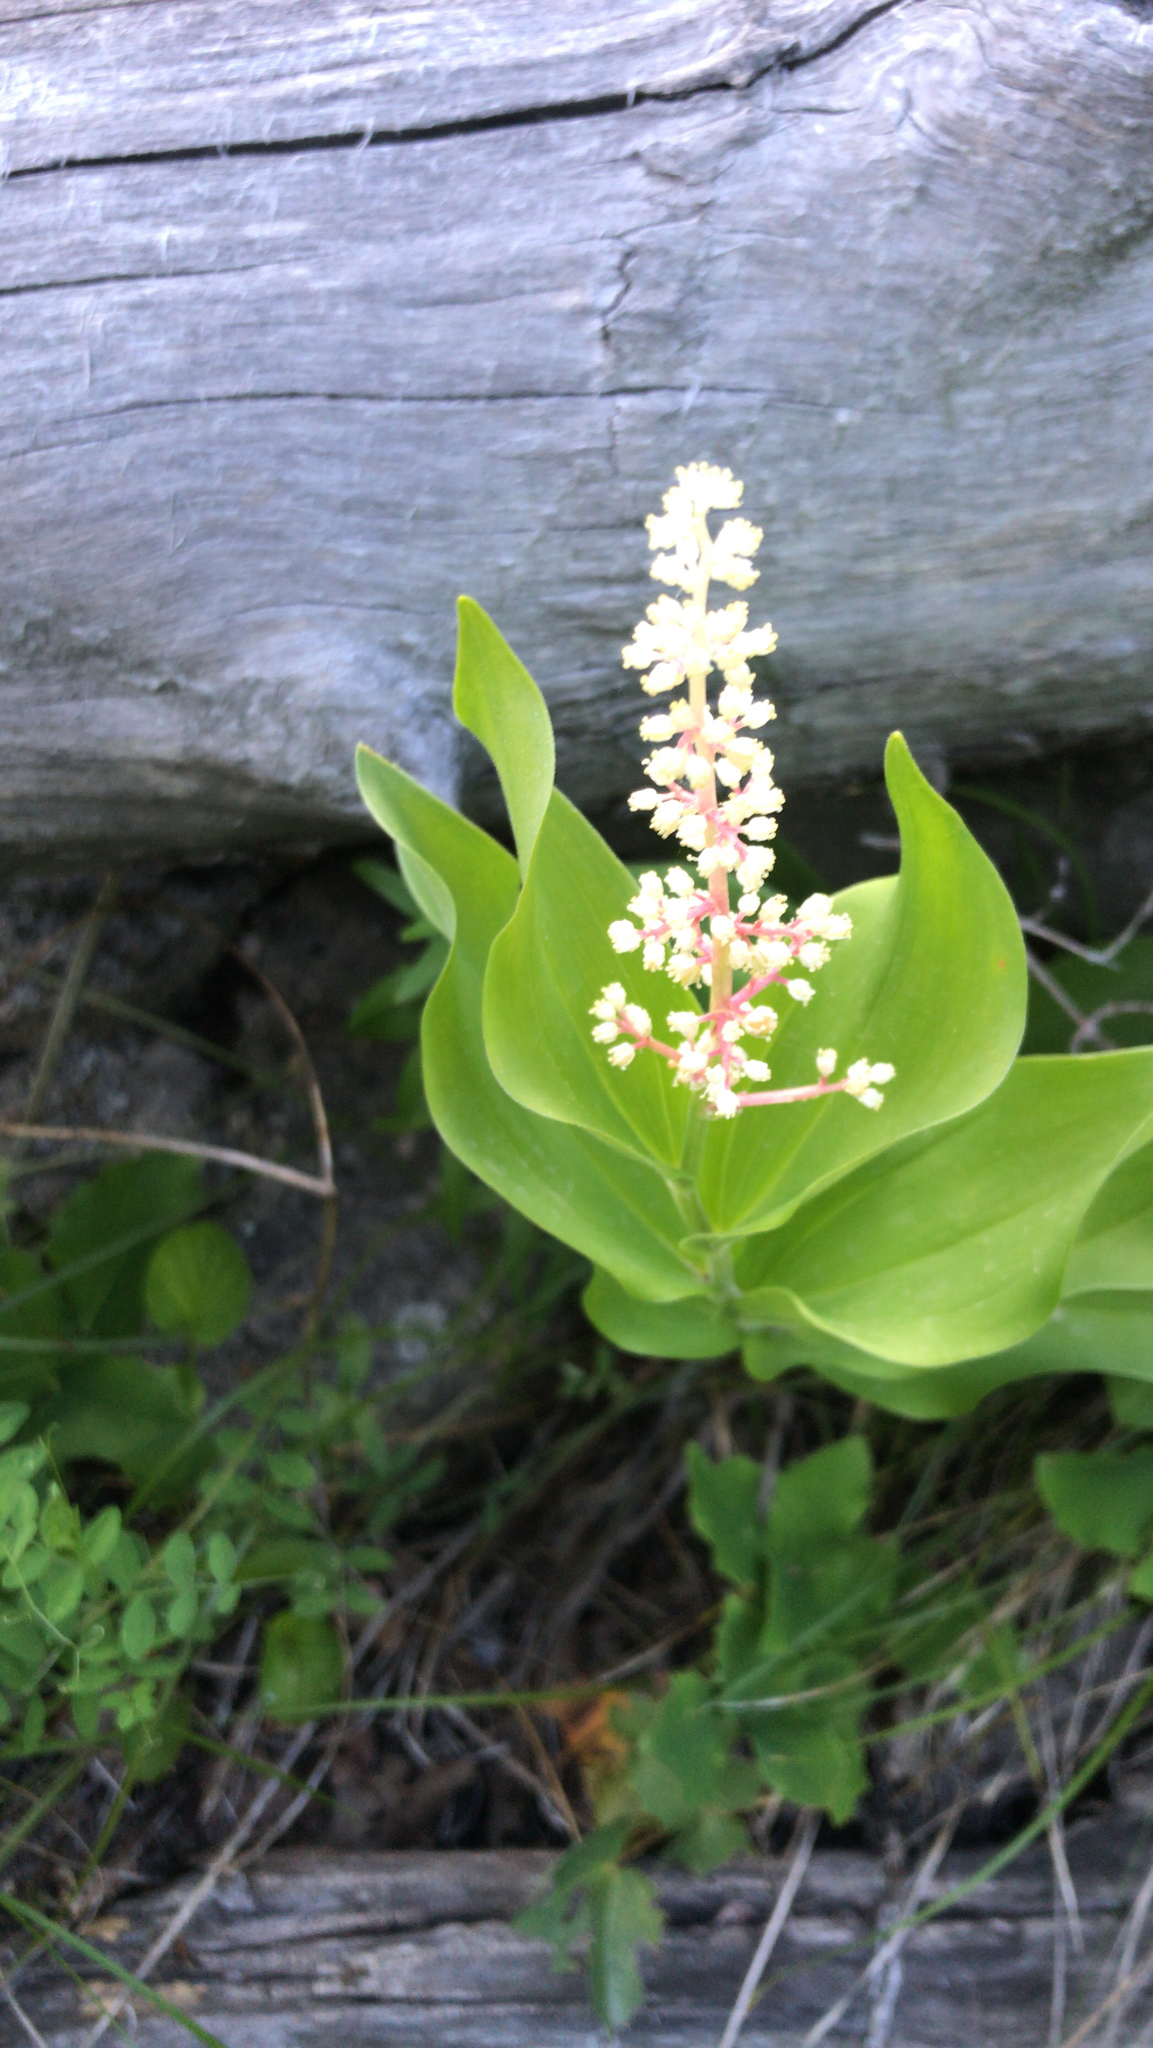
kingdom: Plantae
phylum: Tracheophyta
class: Liliopsida
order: Asparagales
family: Asparagaceae
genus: Maianthemum
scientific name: Maianthemum racemosum
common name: False spikenard
